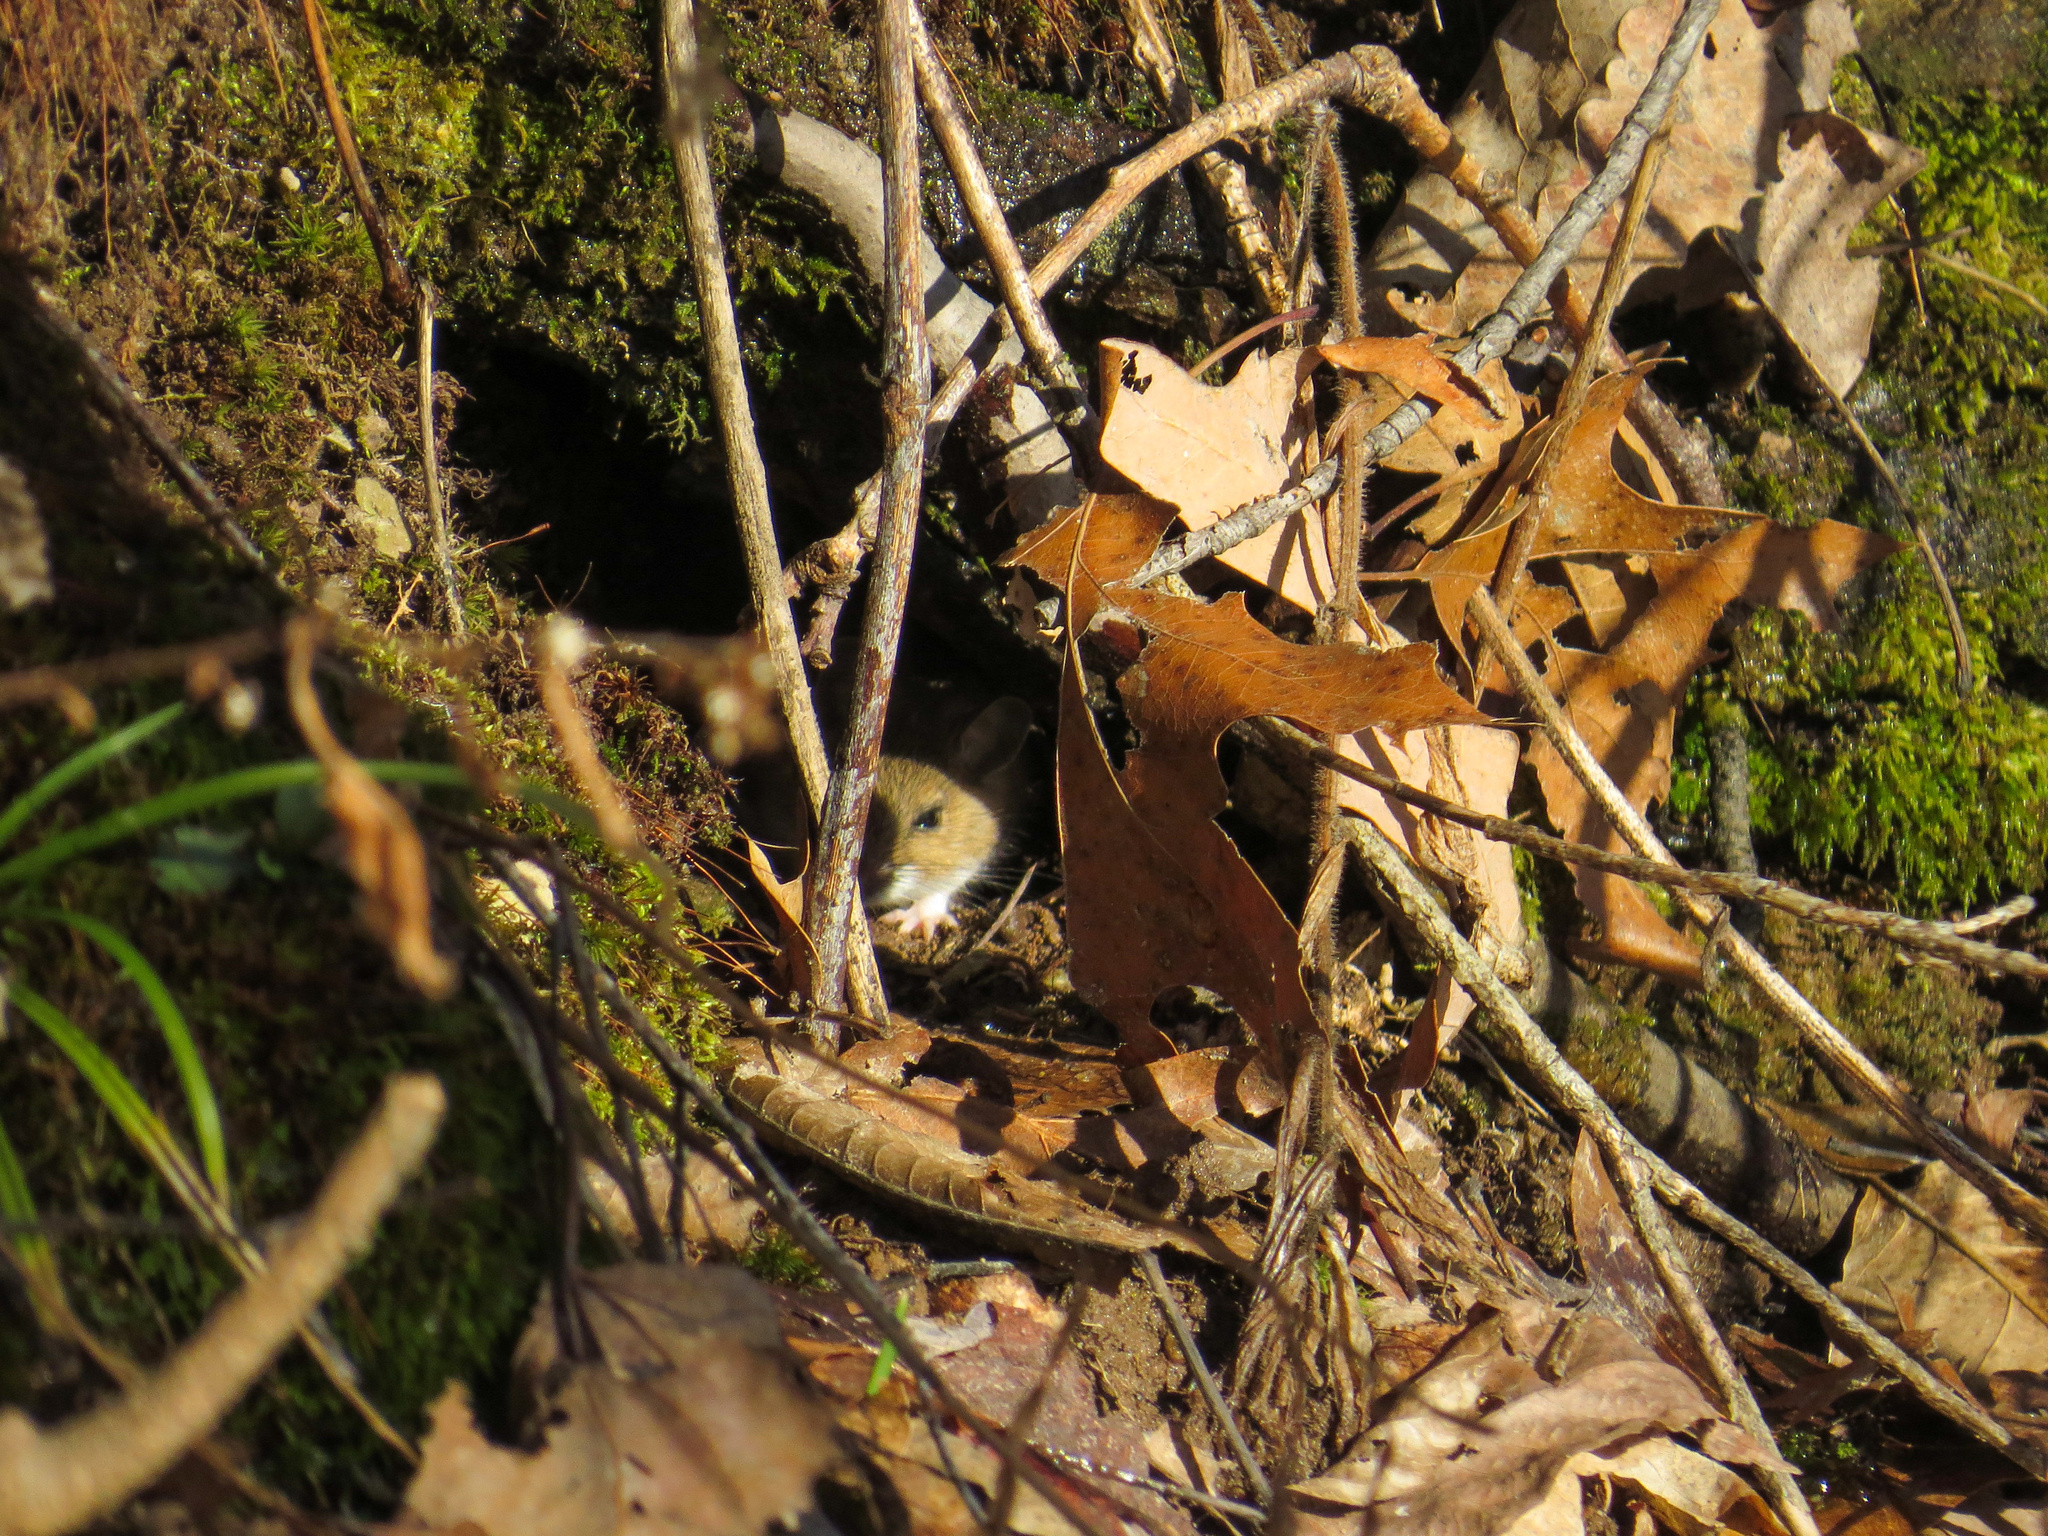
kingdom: Animalia
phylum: Chordata
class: Mammalia
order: Rodentia
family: Cricetidae
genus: Peromyscus
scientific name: Peromyscus leucopus
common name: White-footed deermouse
